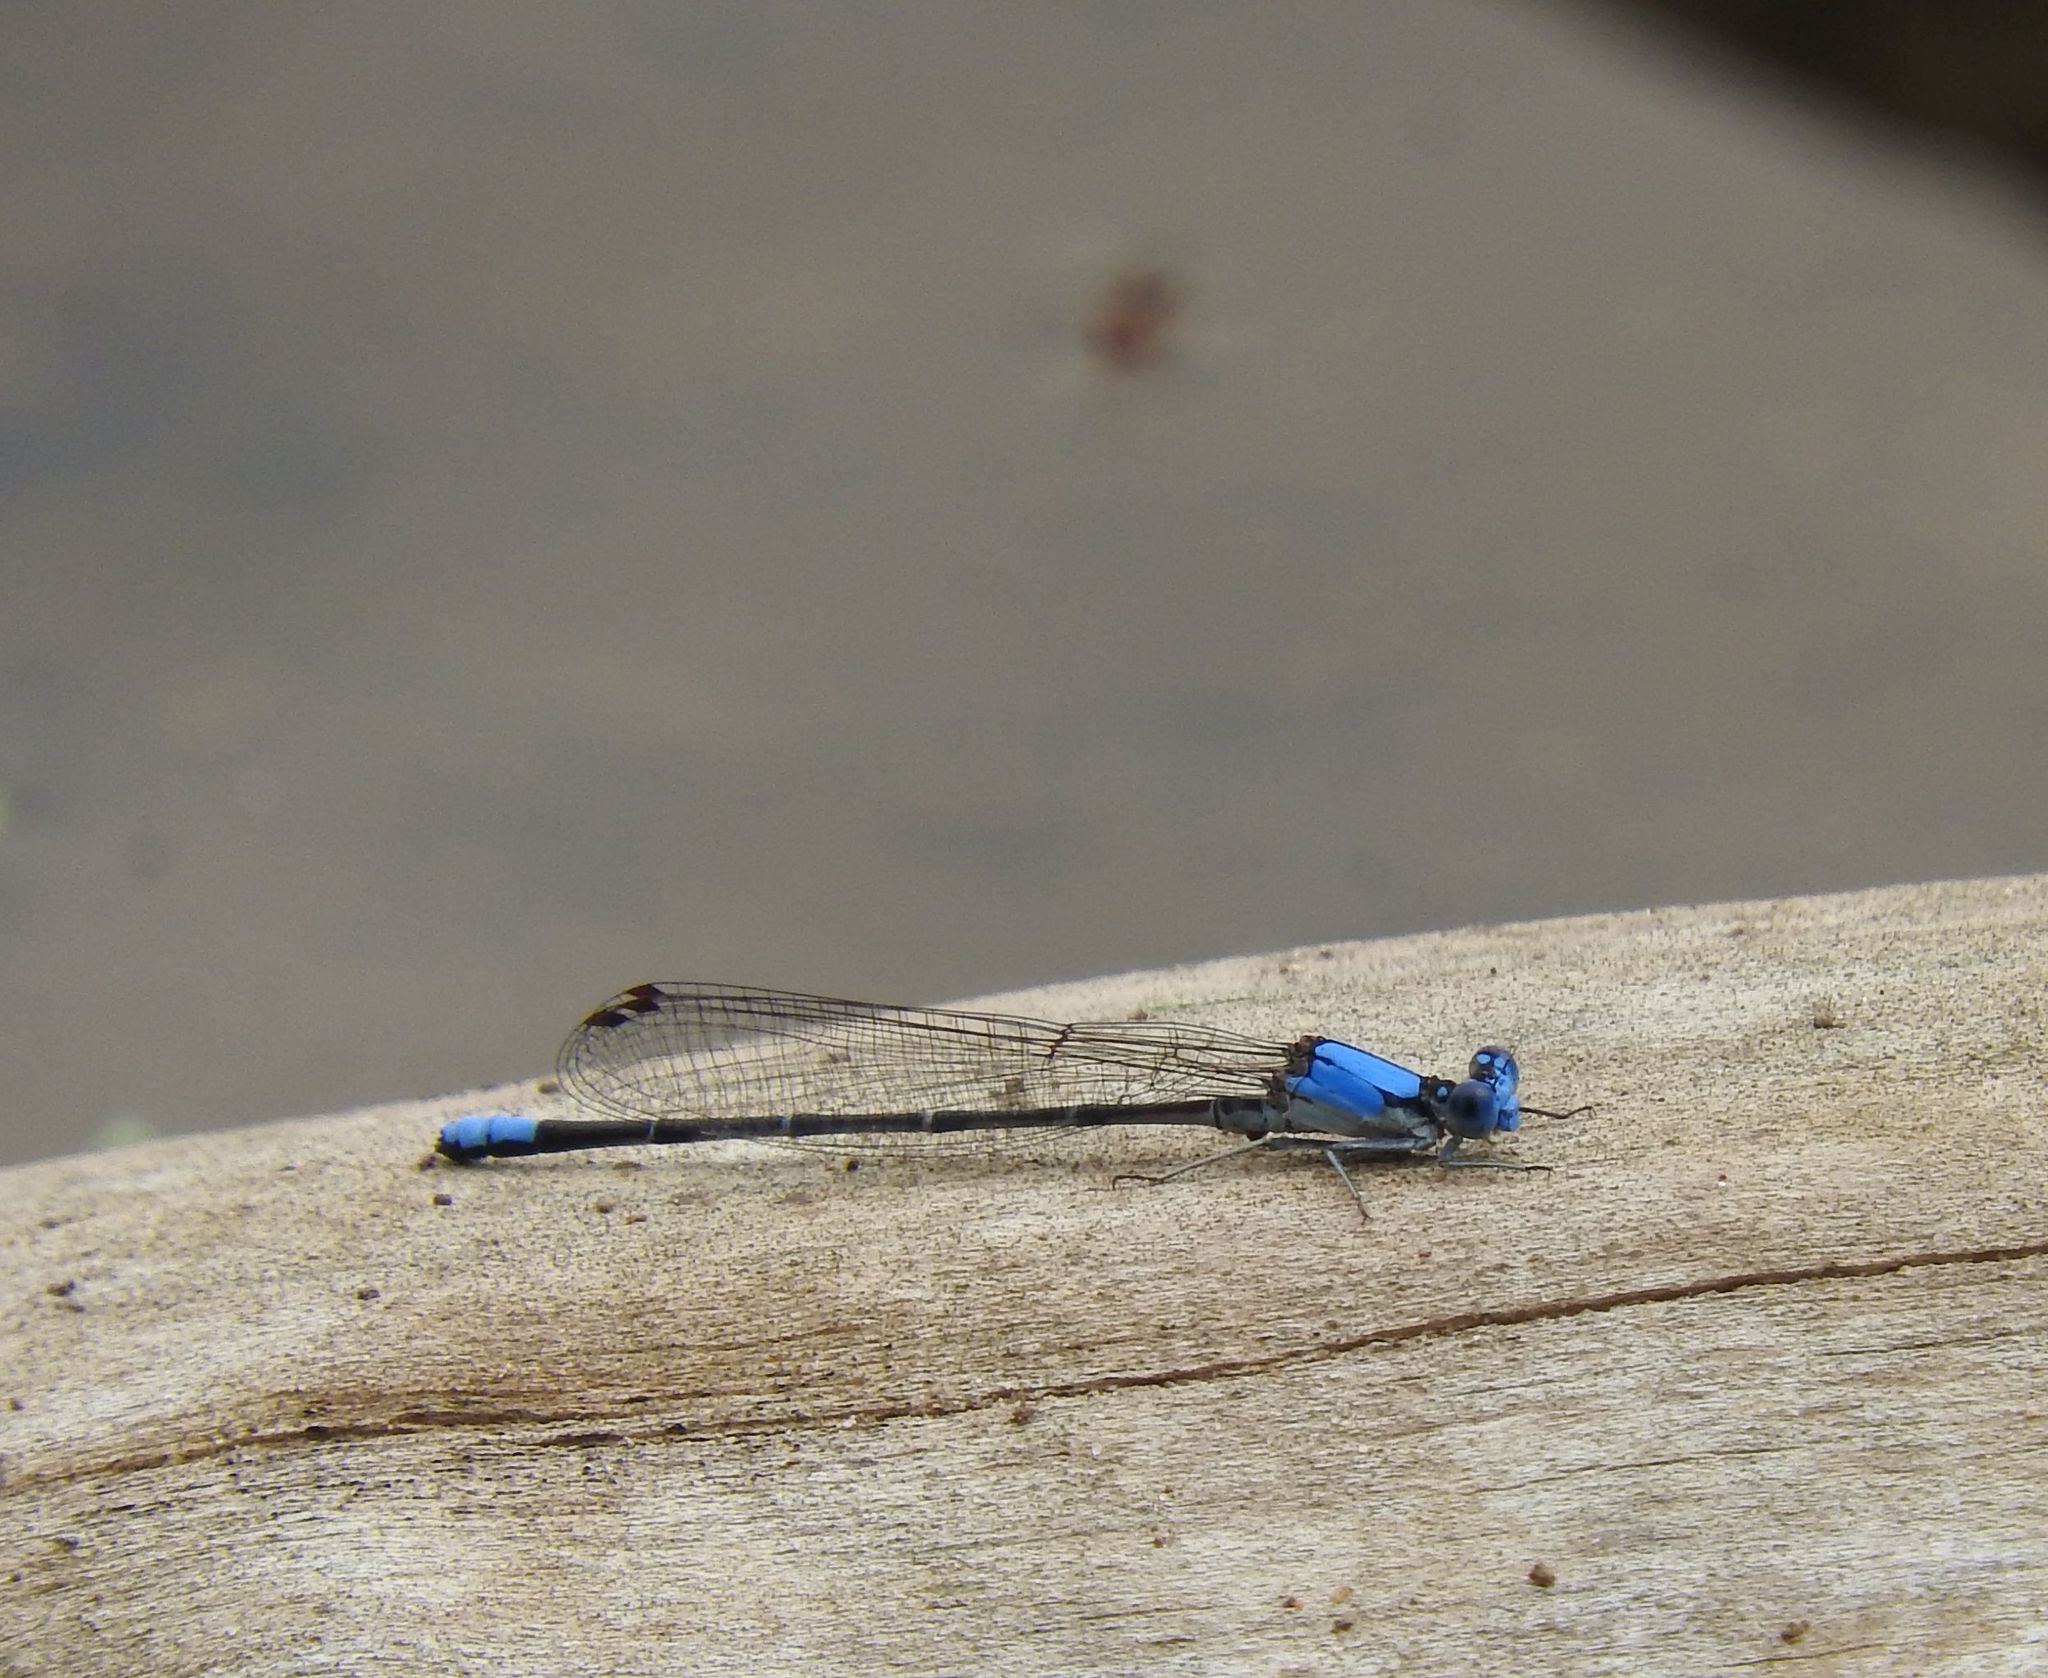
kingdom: Animalia
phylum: Arthropoda
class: Insecta
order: Odonata
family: Coenagrionidae
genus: Argia
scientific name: Argia apicalis
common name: Blue-fronted dancer
